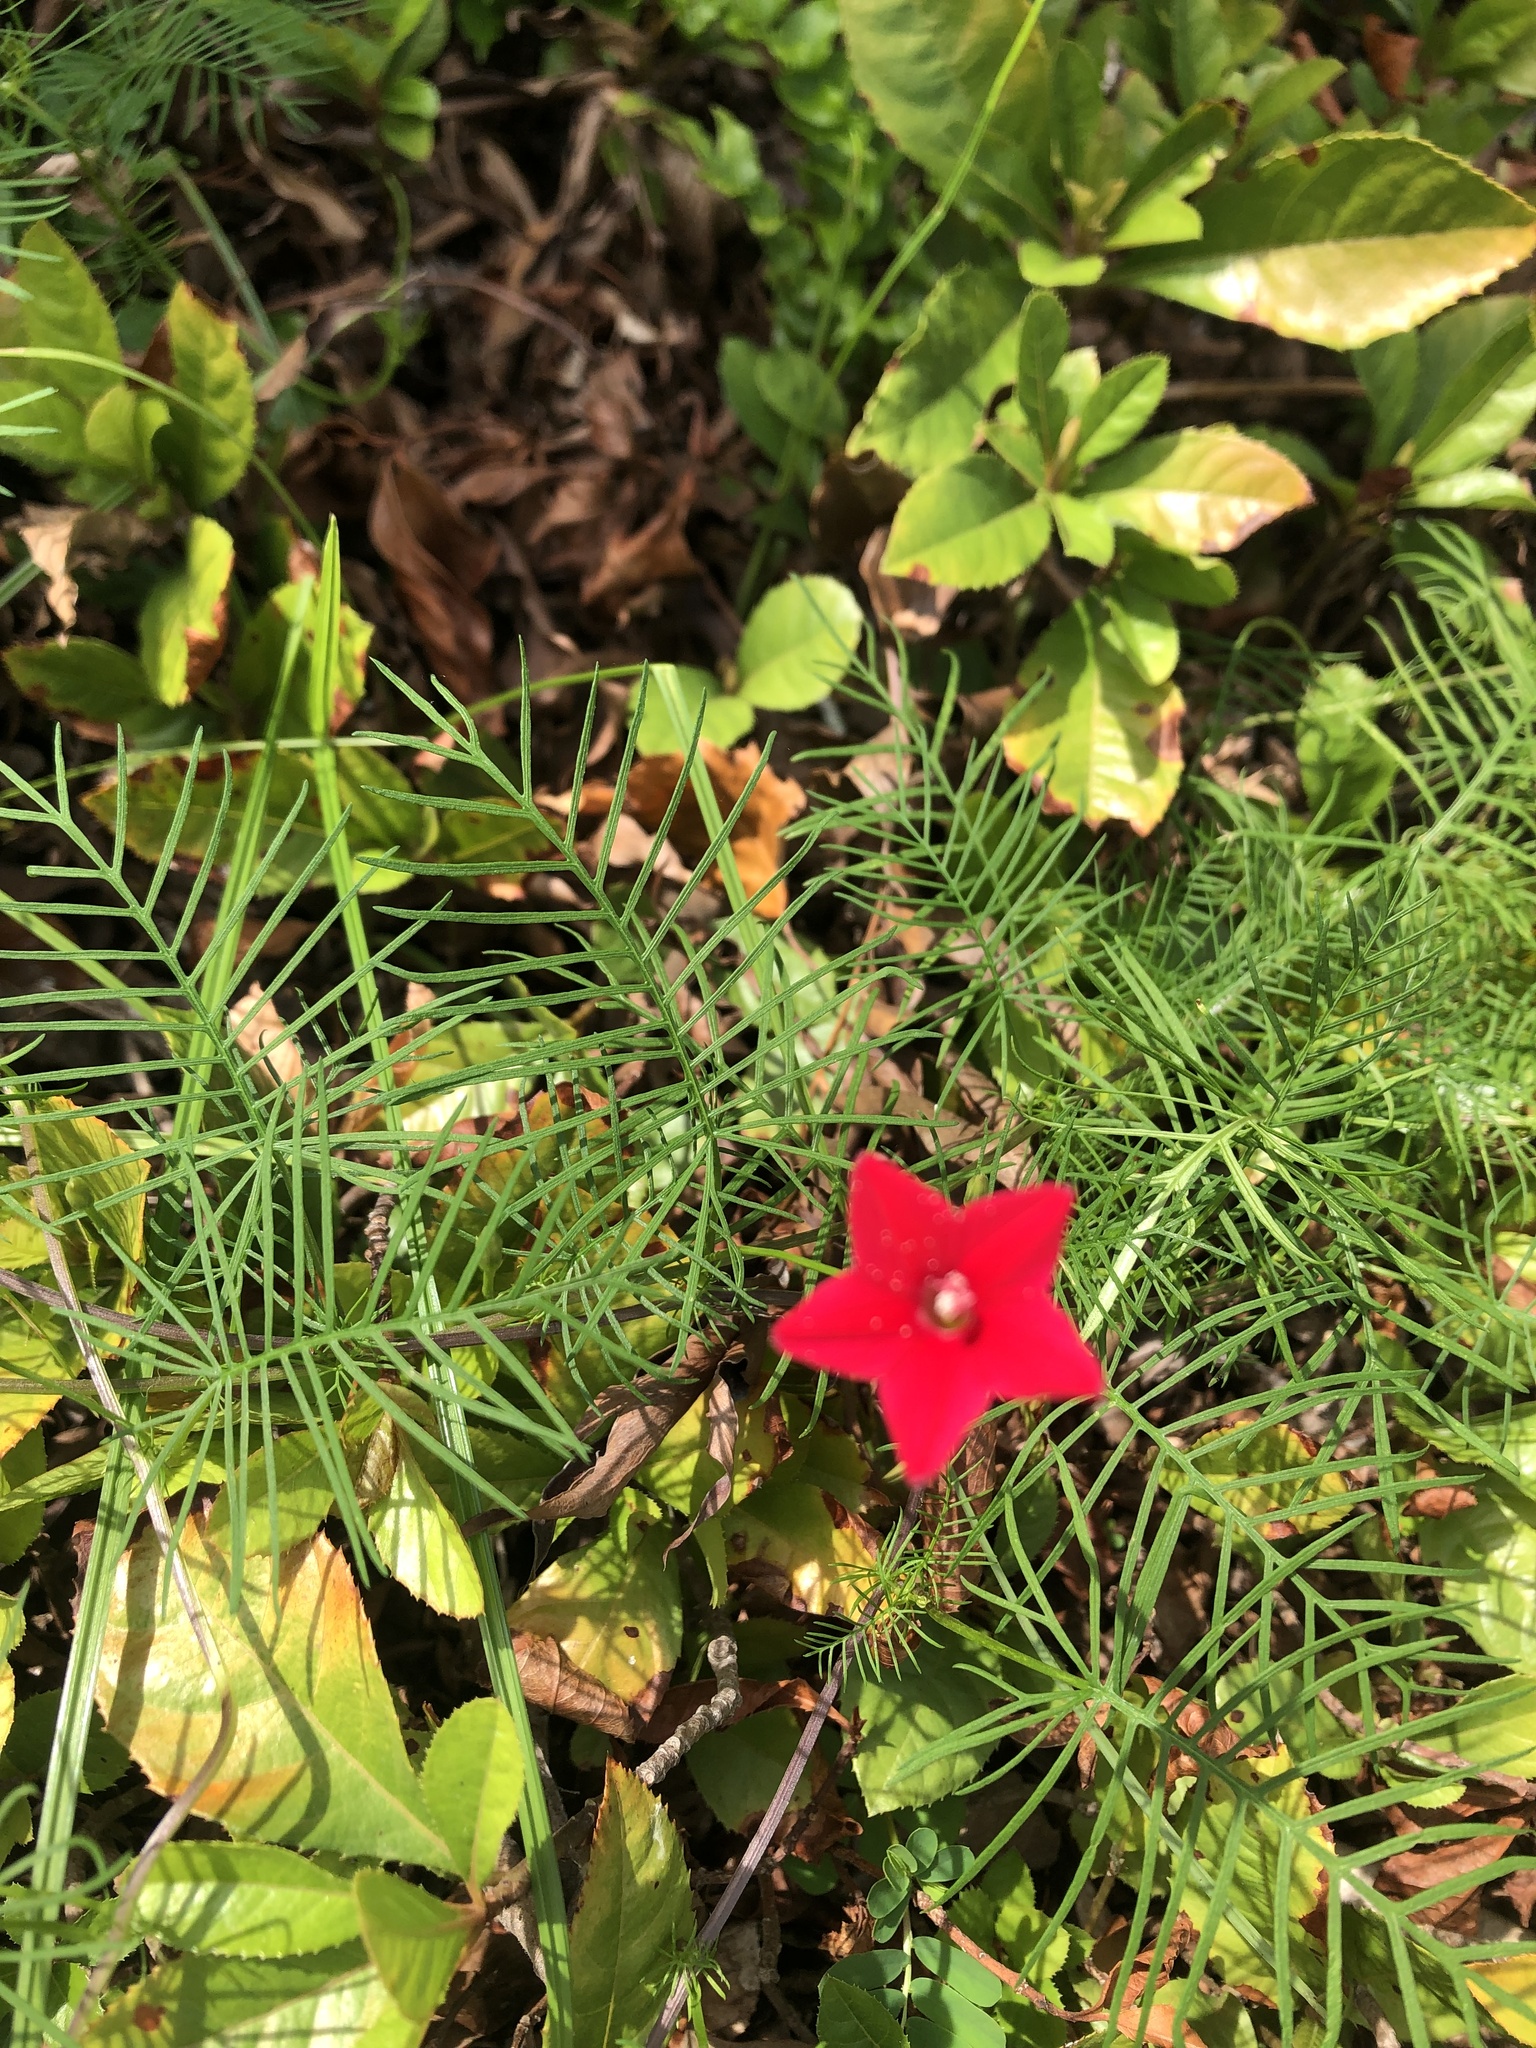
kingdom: Plantae
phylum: Tracheophyta
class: Magnoliopsida
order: Solanales
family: Convolvulaceae
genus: Ipomoea
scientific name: Ipomoea quamoclit
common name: Cypress vine
